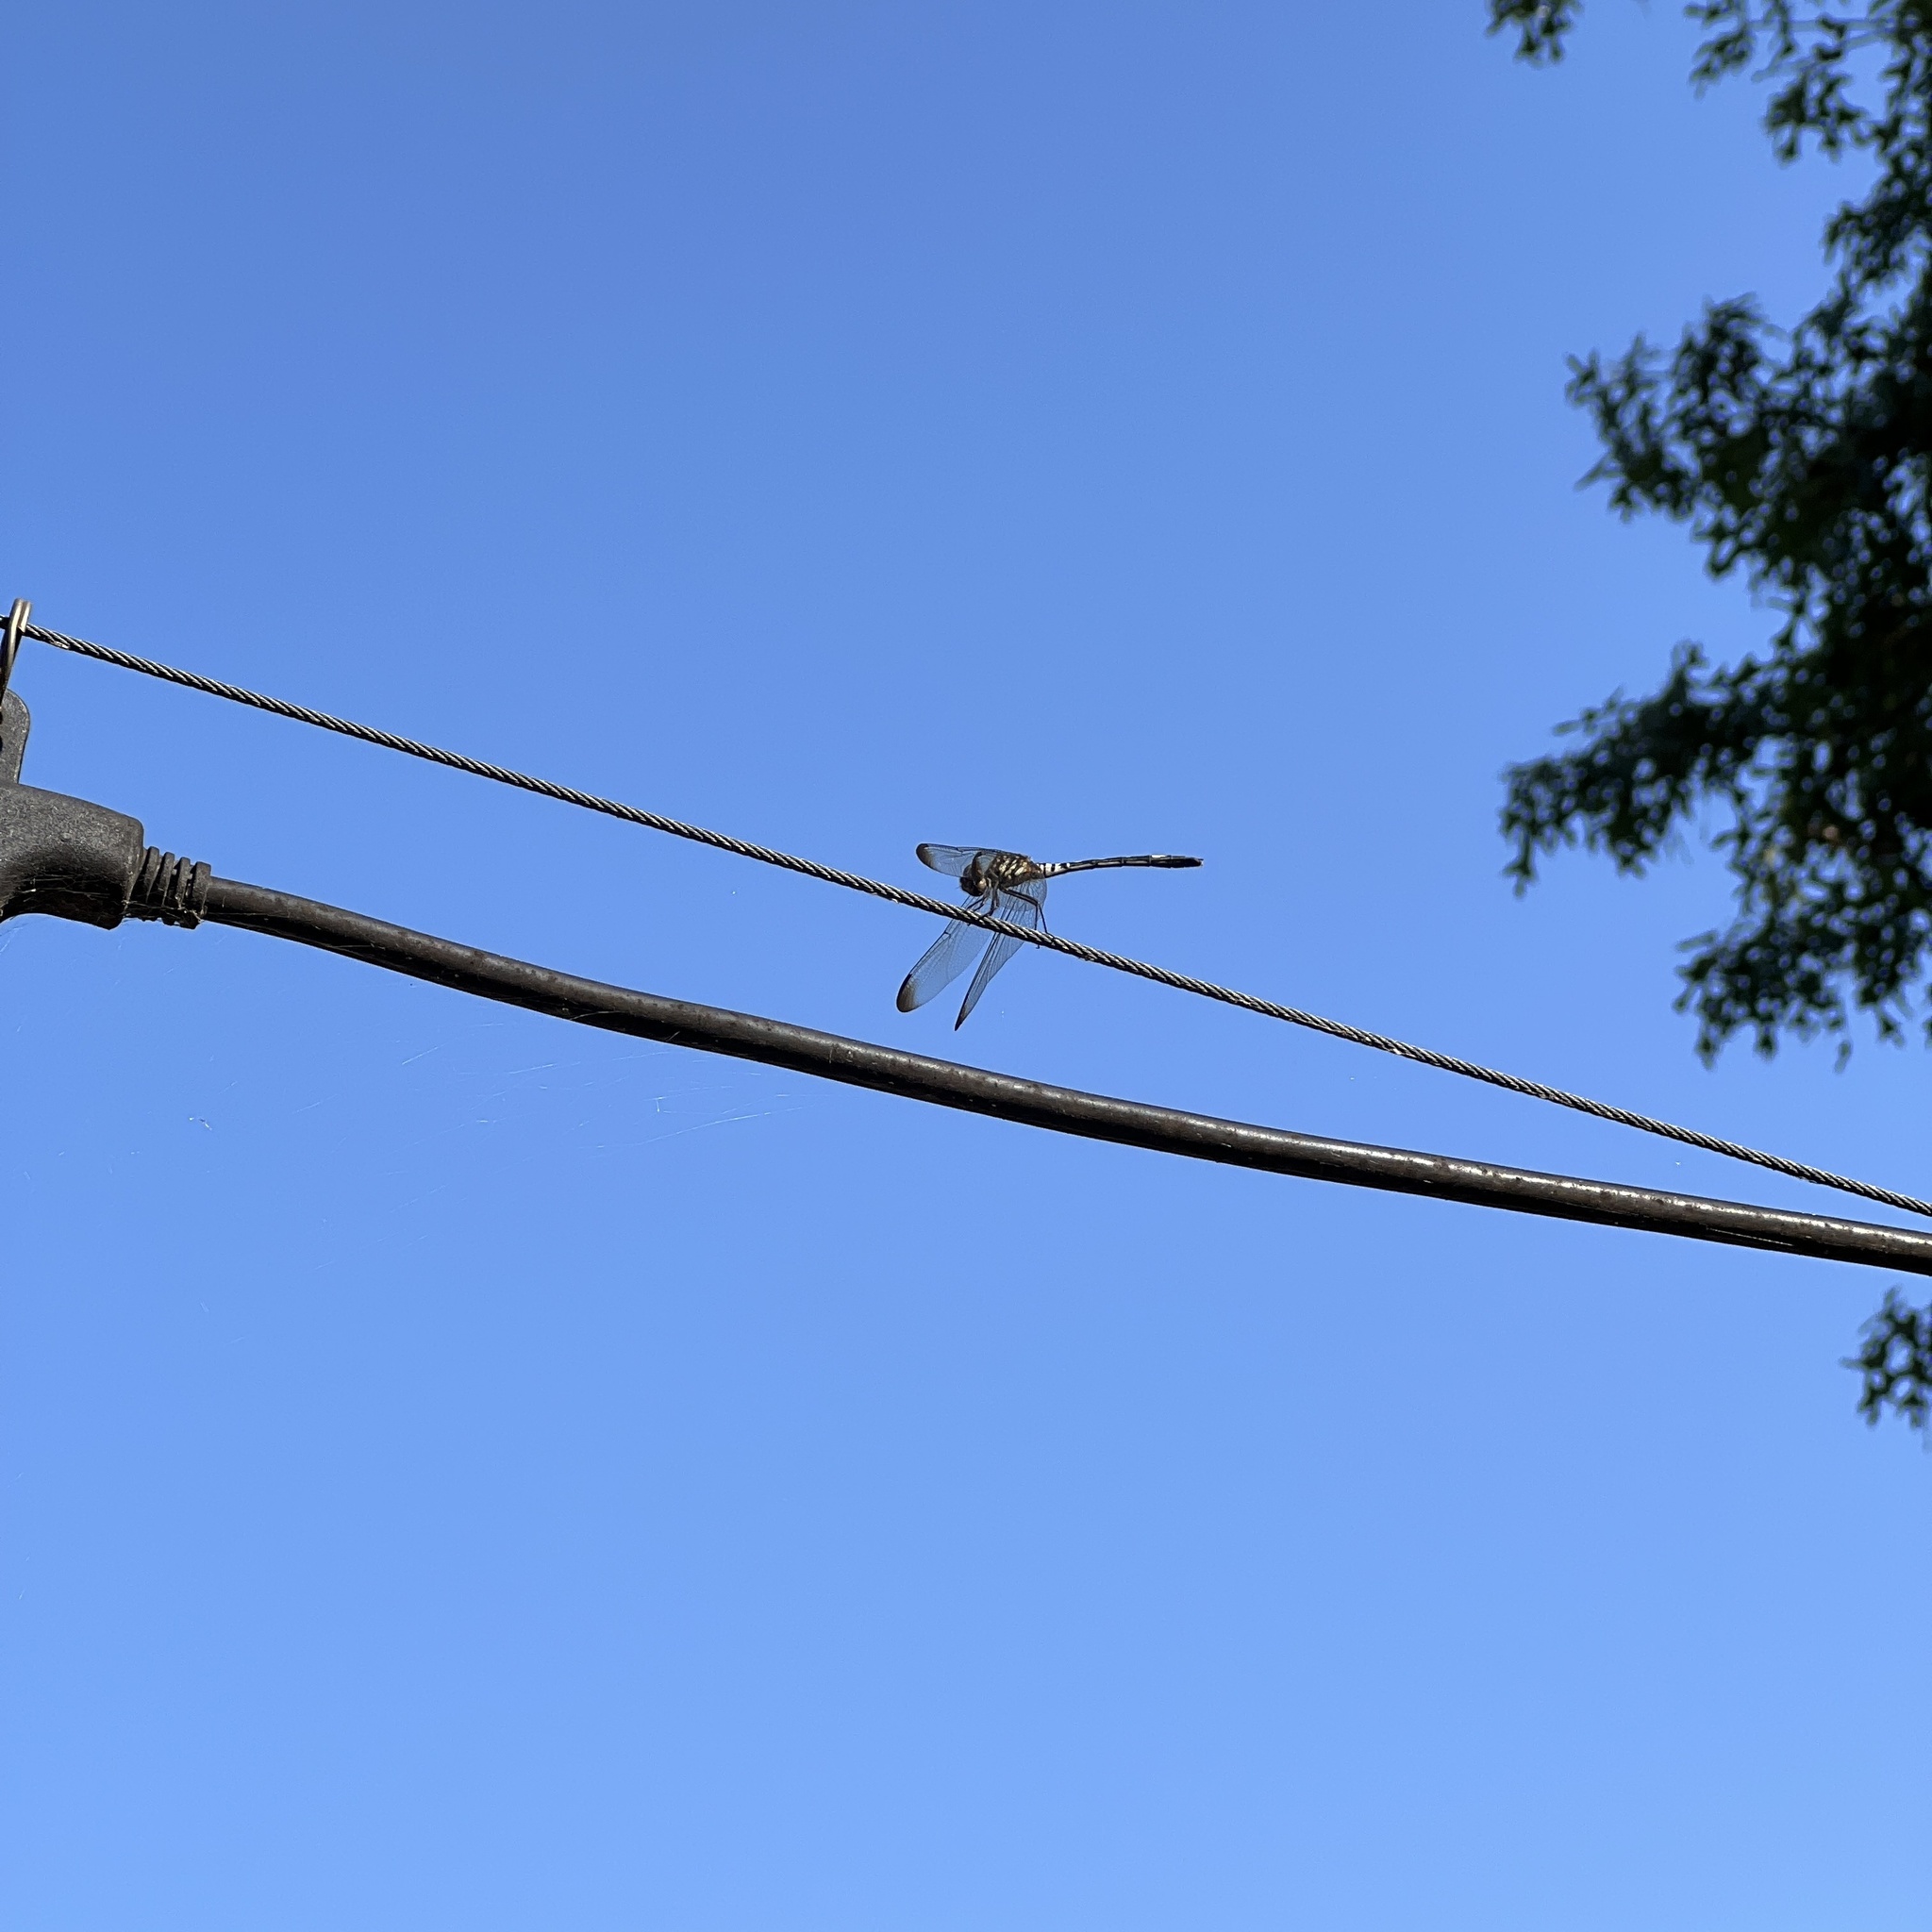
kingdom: Animalia
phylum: Arthropoda
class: Insecta
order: Odonata
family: Libellulidae
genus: Dythemis
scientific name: Dythemis velox
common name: Swift setwing
